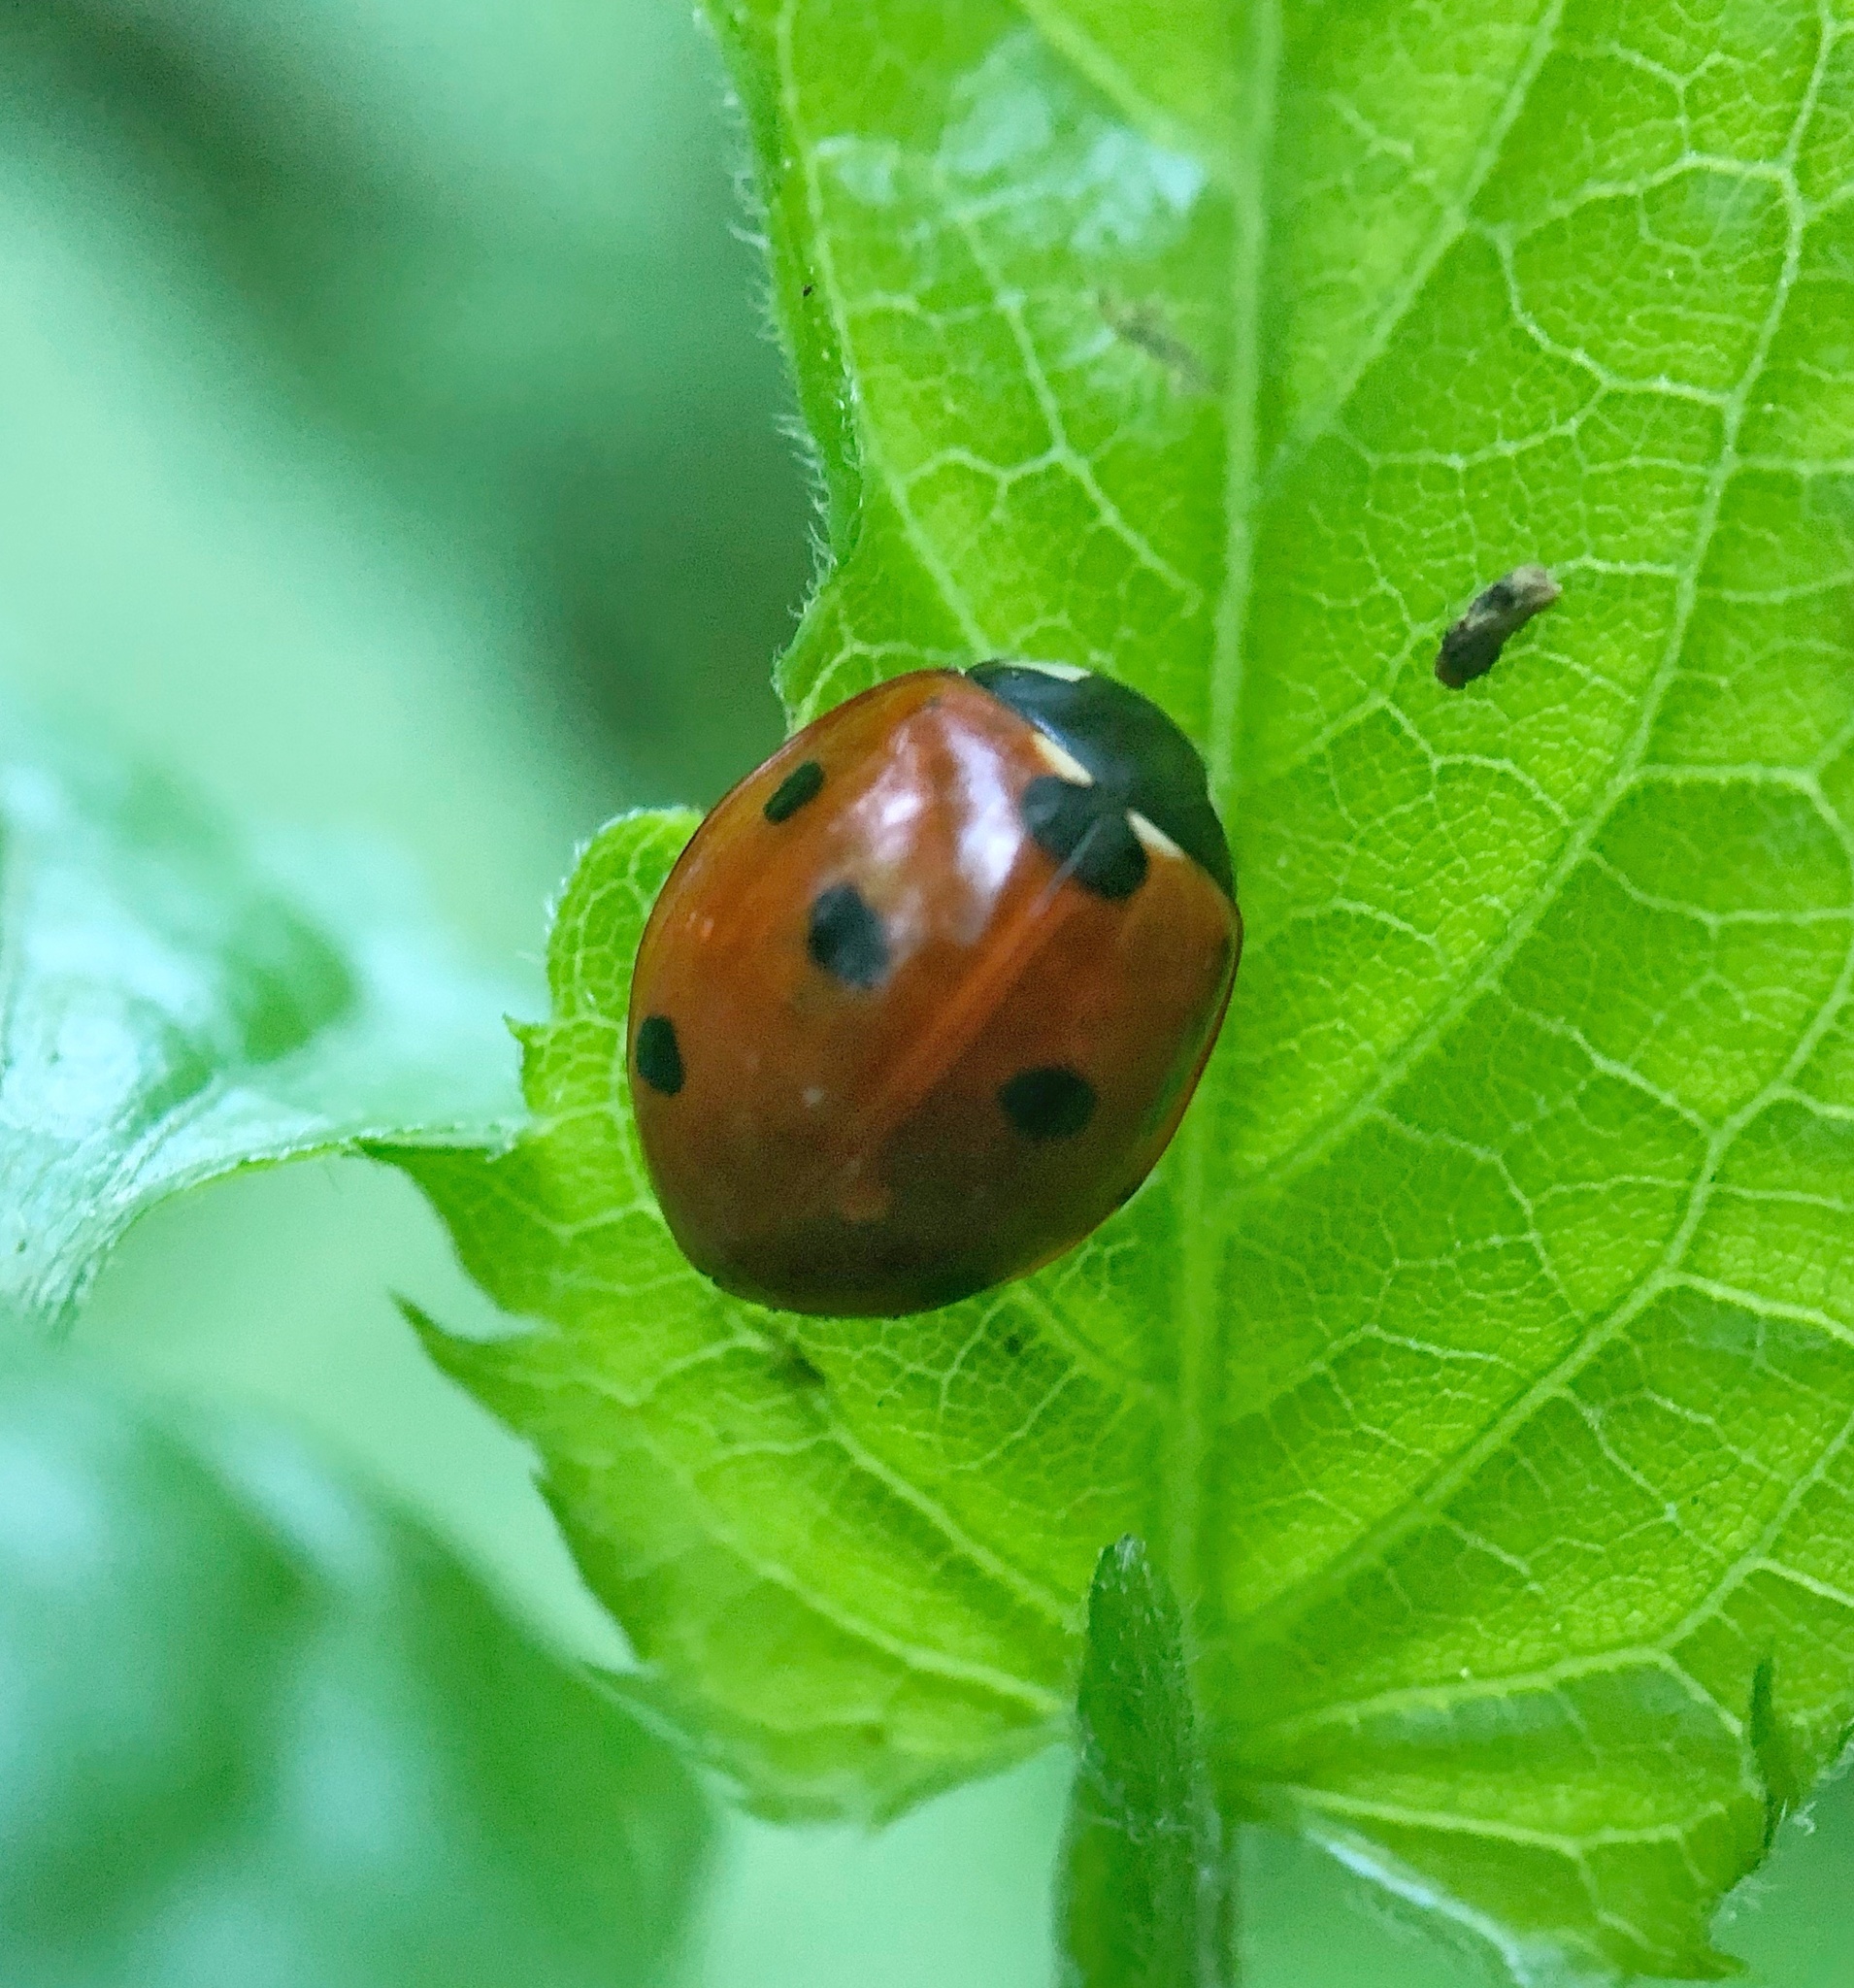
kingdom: Animalia
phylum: Arthropoda
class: Insecta
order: Coleoptera
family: Coccinellidae
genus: Coccinella
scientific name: Coccinella septempunctata
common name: Sevenspotted lady beetle
